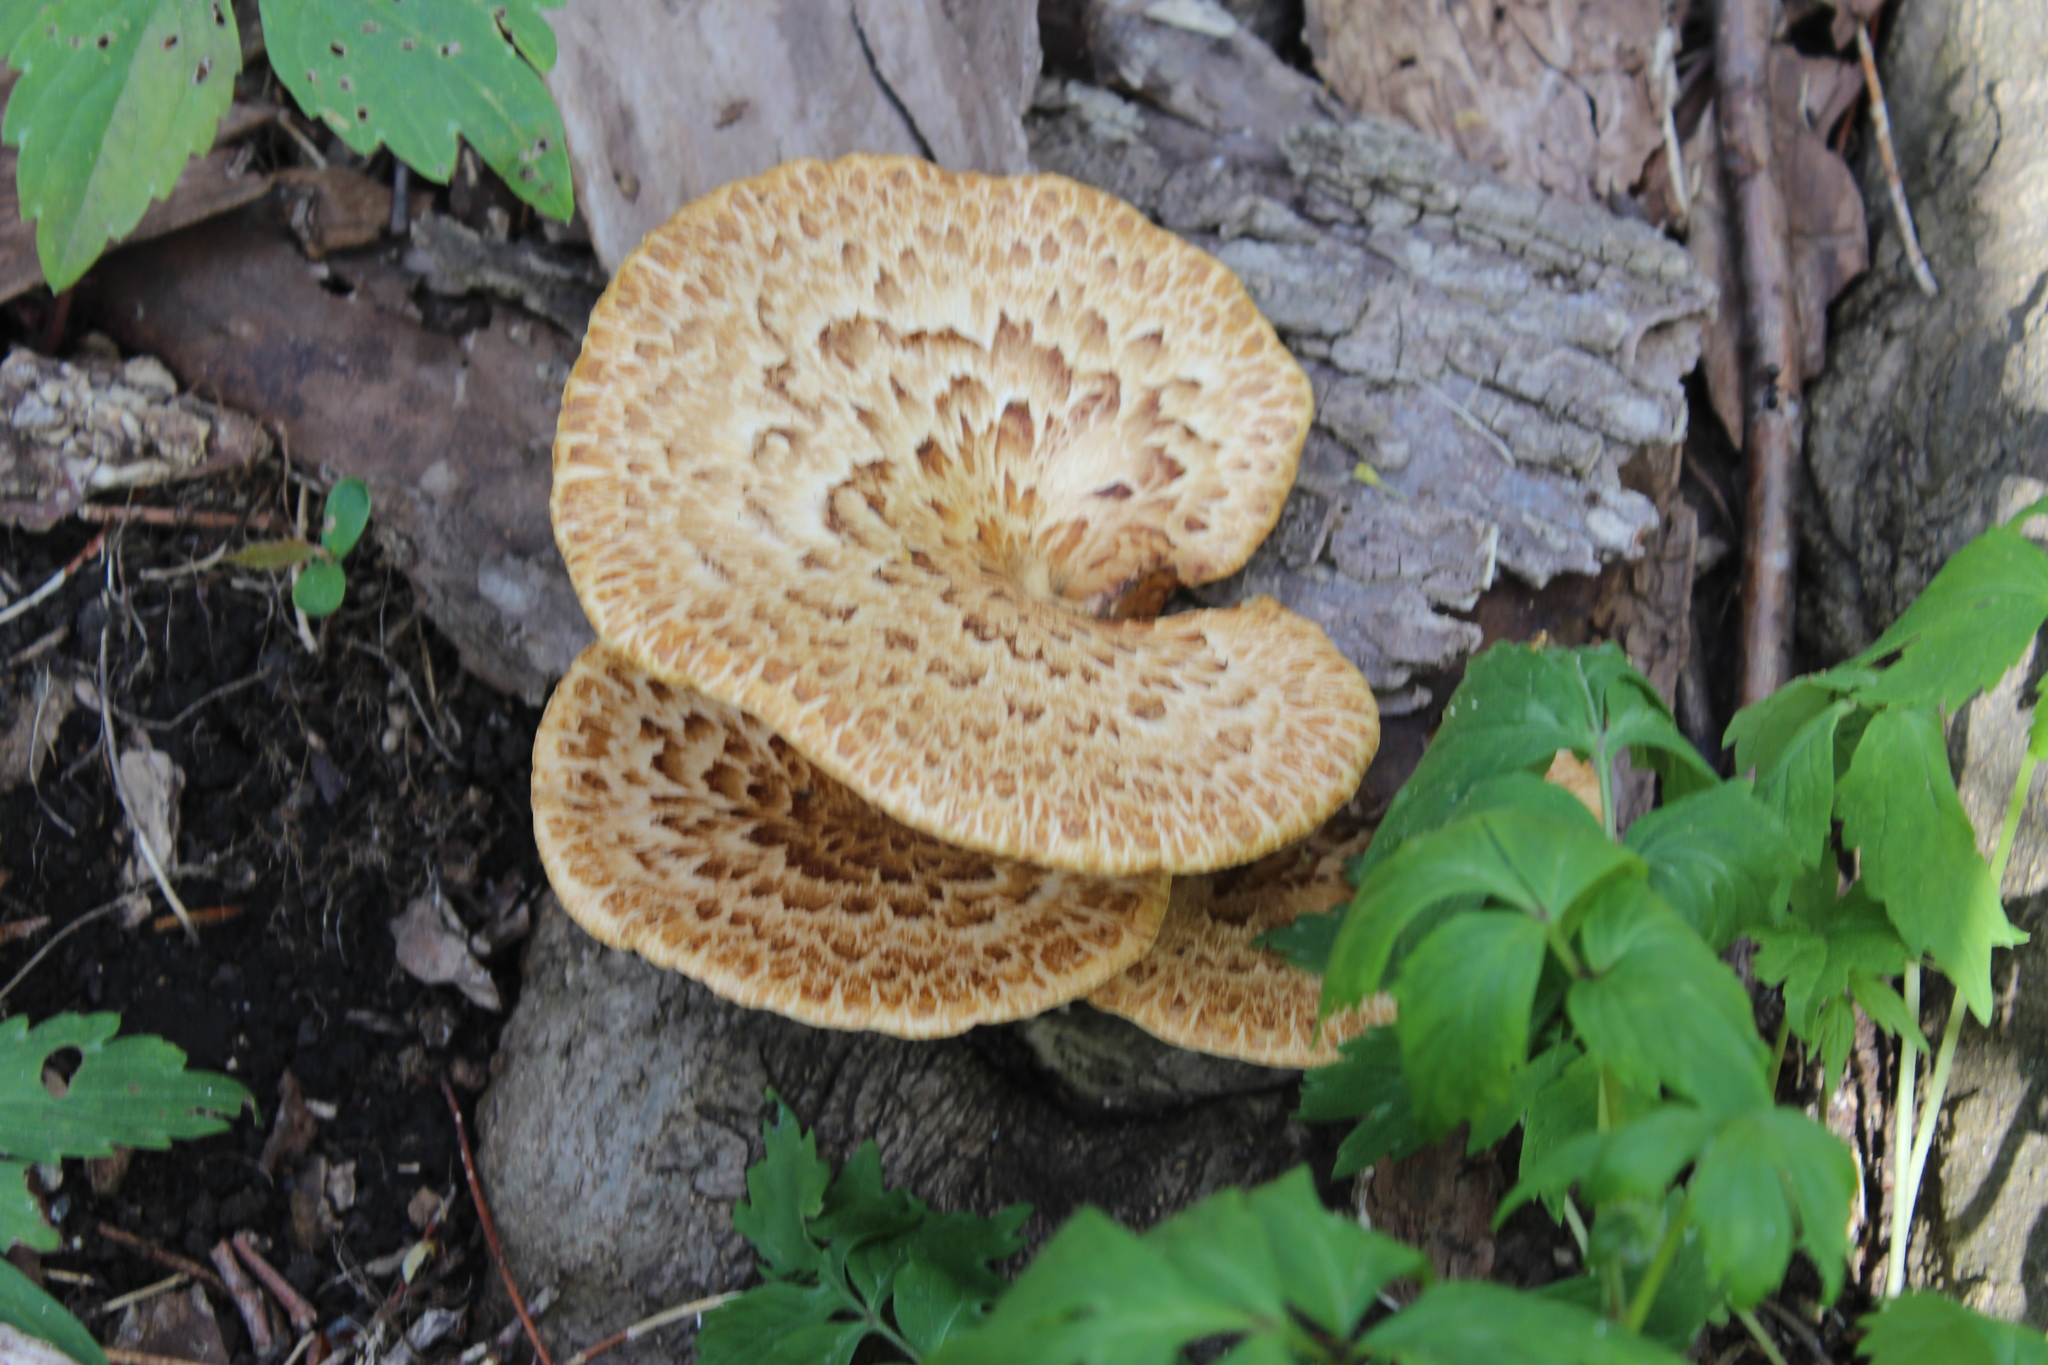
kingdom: Fungi
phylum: Basidiomycota
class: Agaricomycetes
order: Polyporales
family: Polyporaceae
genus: Cerioporus
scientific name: Cerioporus squamosus
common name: Dryad's saddle
